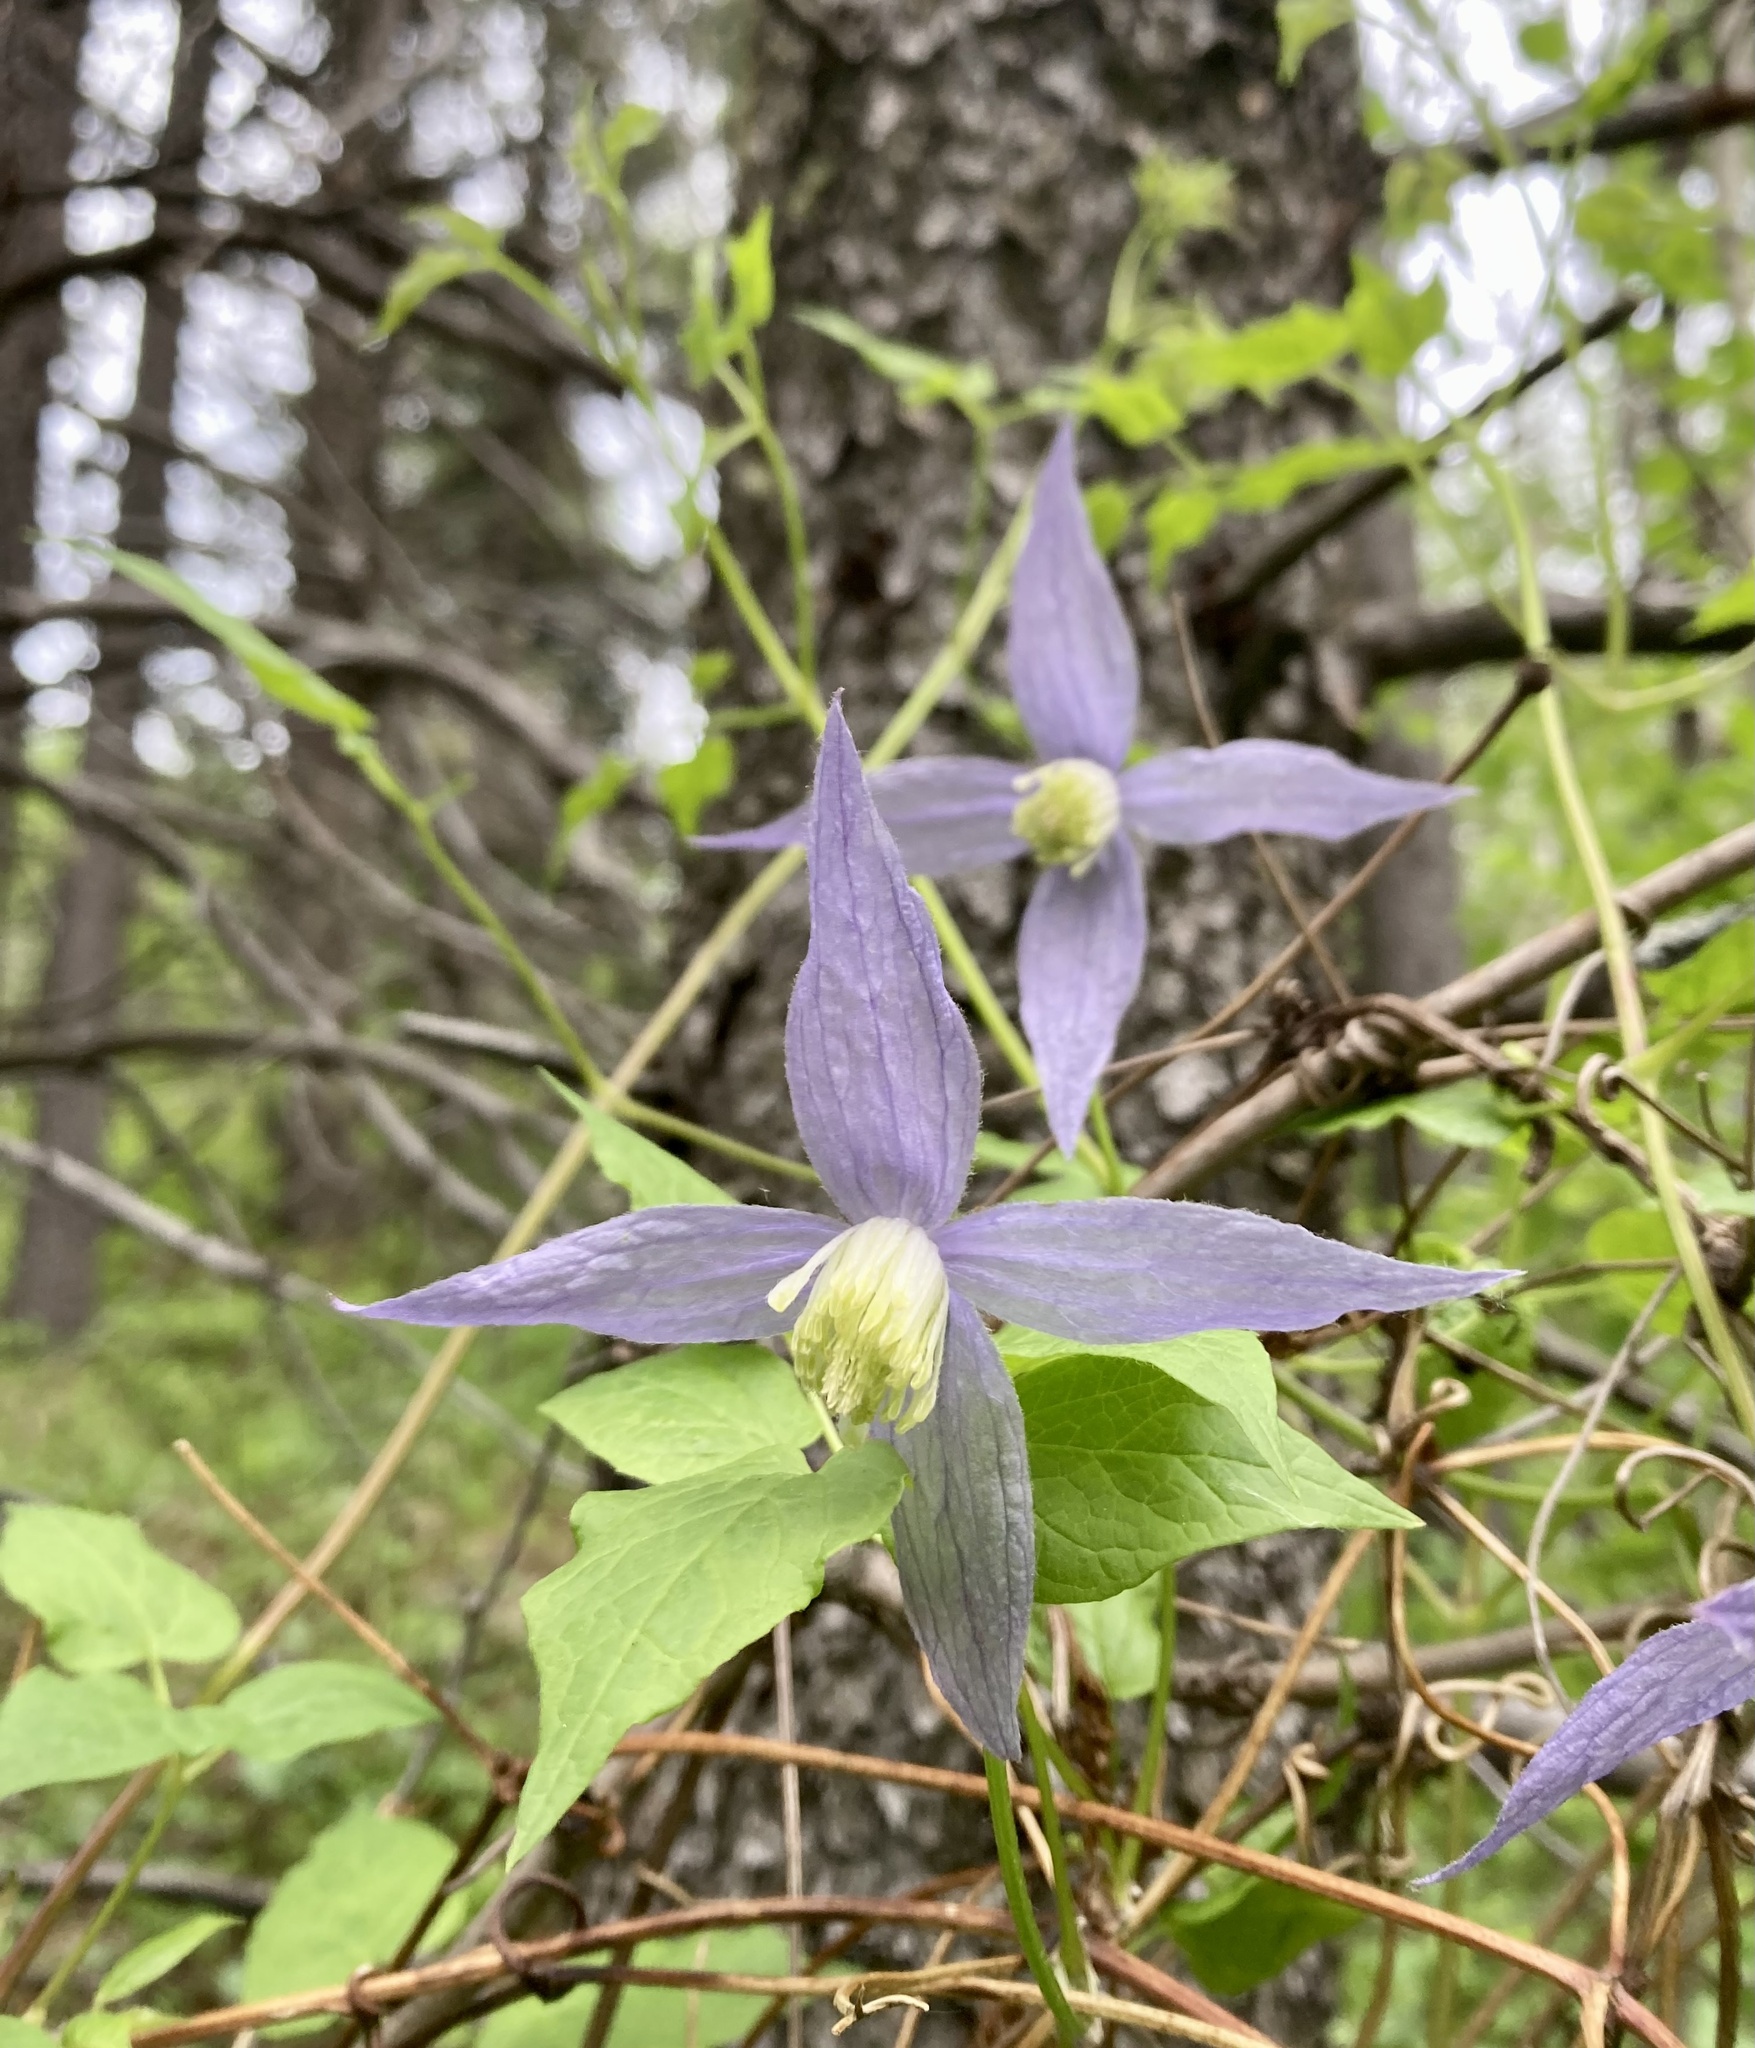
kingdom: Plantae
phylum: Tracheophyta
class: Magnoliopsida
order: Ranunculales
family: Ranunculaceae
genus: Clematis
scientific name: Clematis occidentalis
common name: Purple clematis
